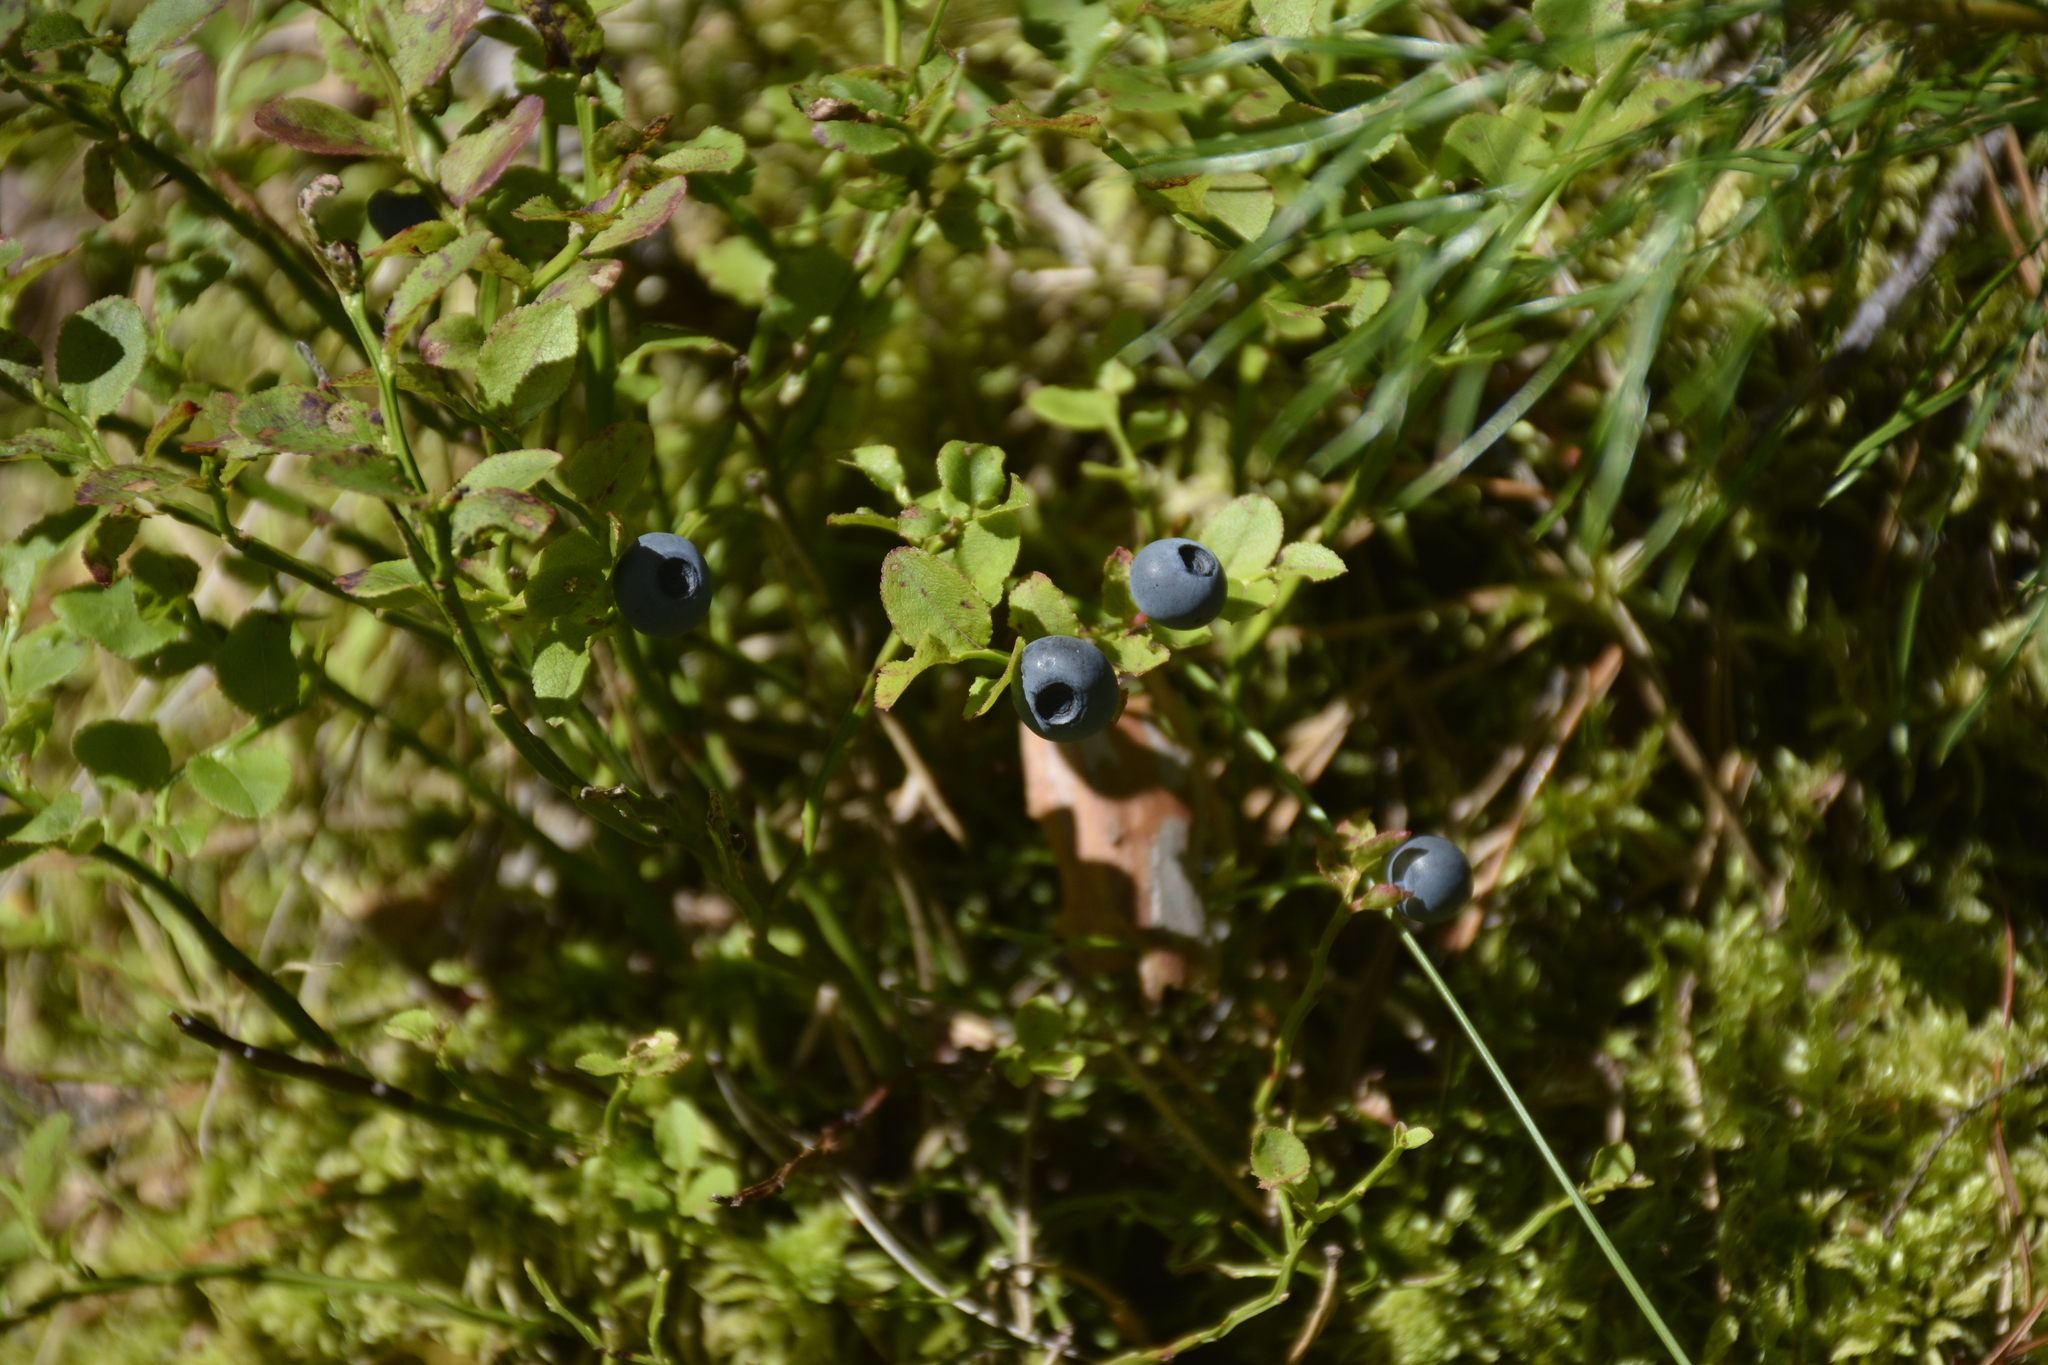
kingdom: Plantae
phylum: Tracheophyta
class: Magnoliopsida
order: Ericales
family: Ericaceae
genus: Vaccinium
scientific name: Vaccinium myrtillus
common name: Bilberry
